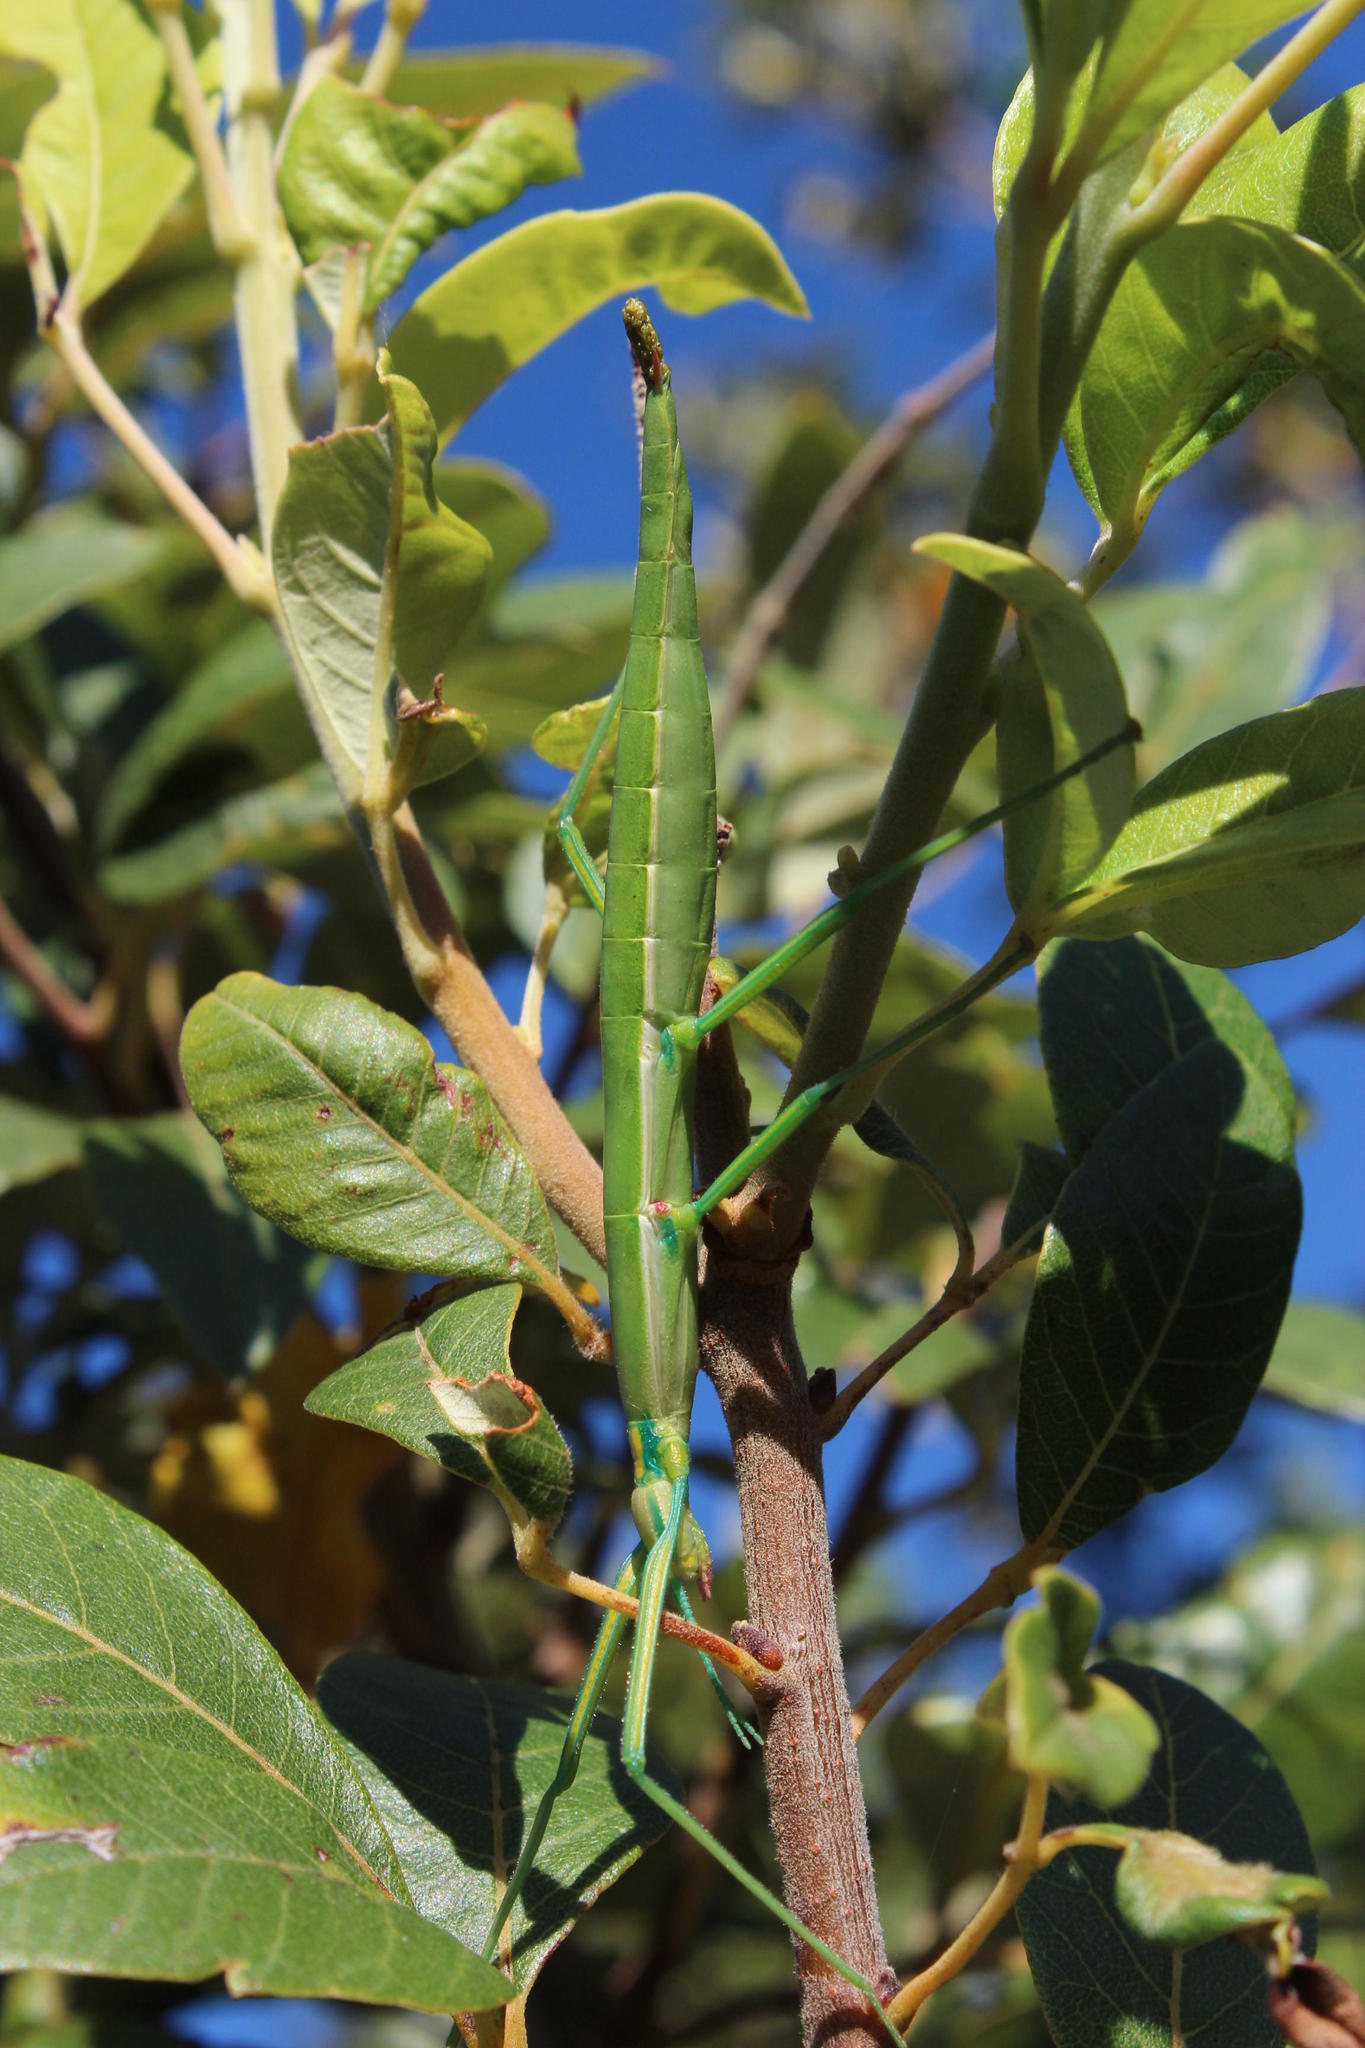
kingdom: Animalia
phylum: Arthropoda
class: Insecta
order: Phasmida
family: Bacillidae
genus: Macynia
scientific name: Macynia labiata
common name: Thunberg's stick insect
